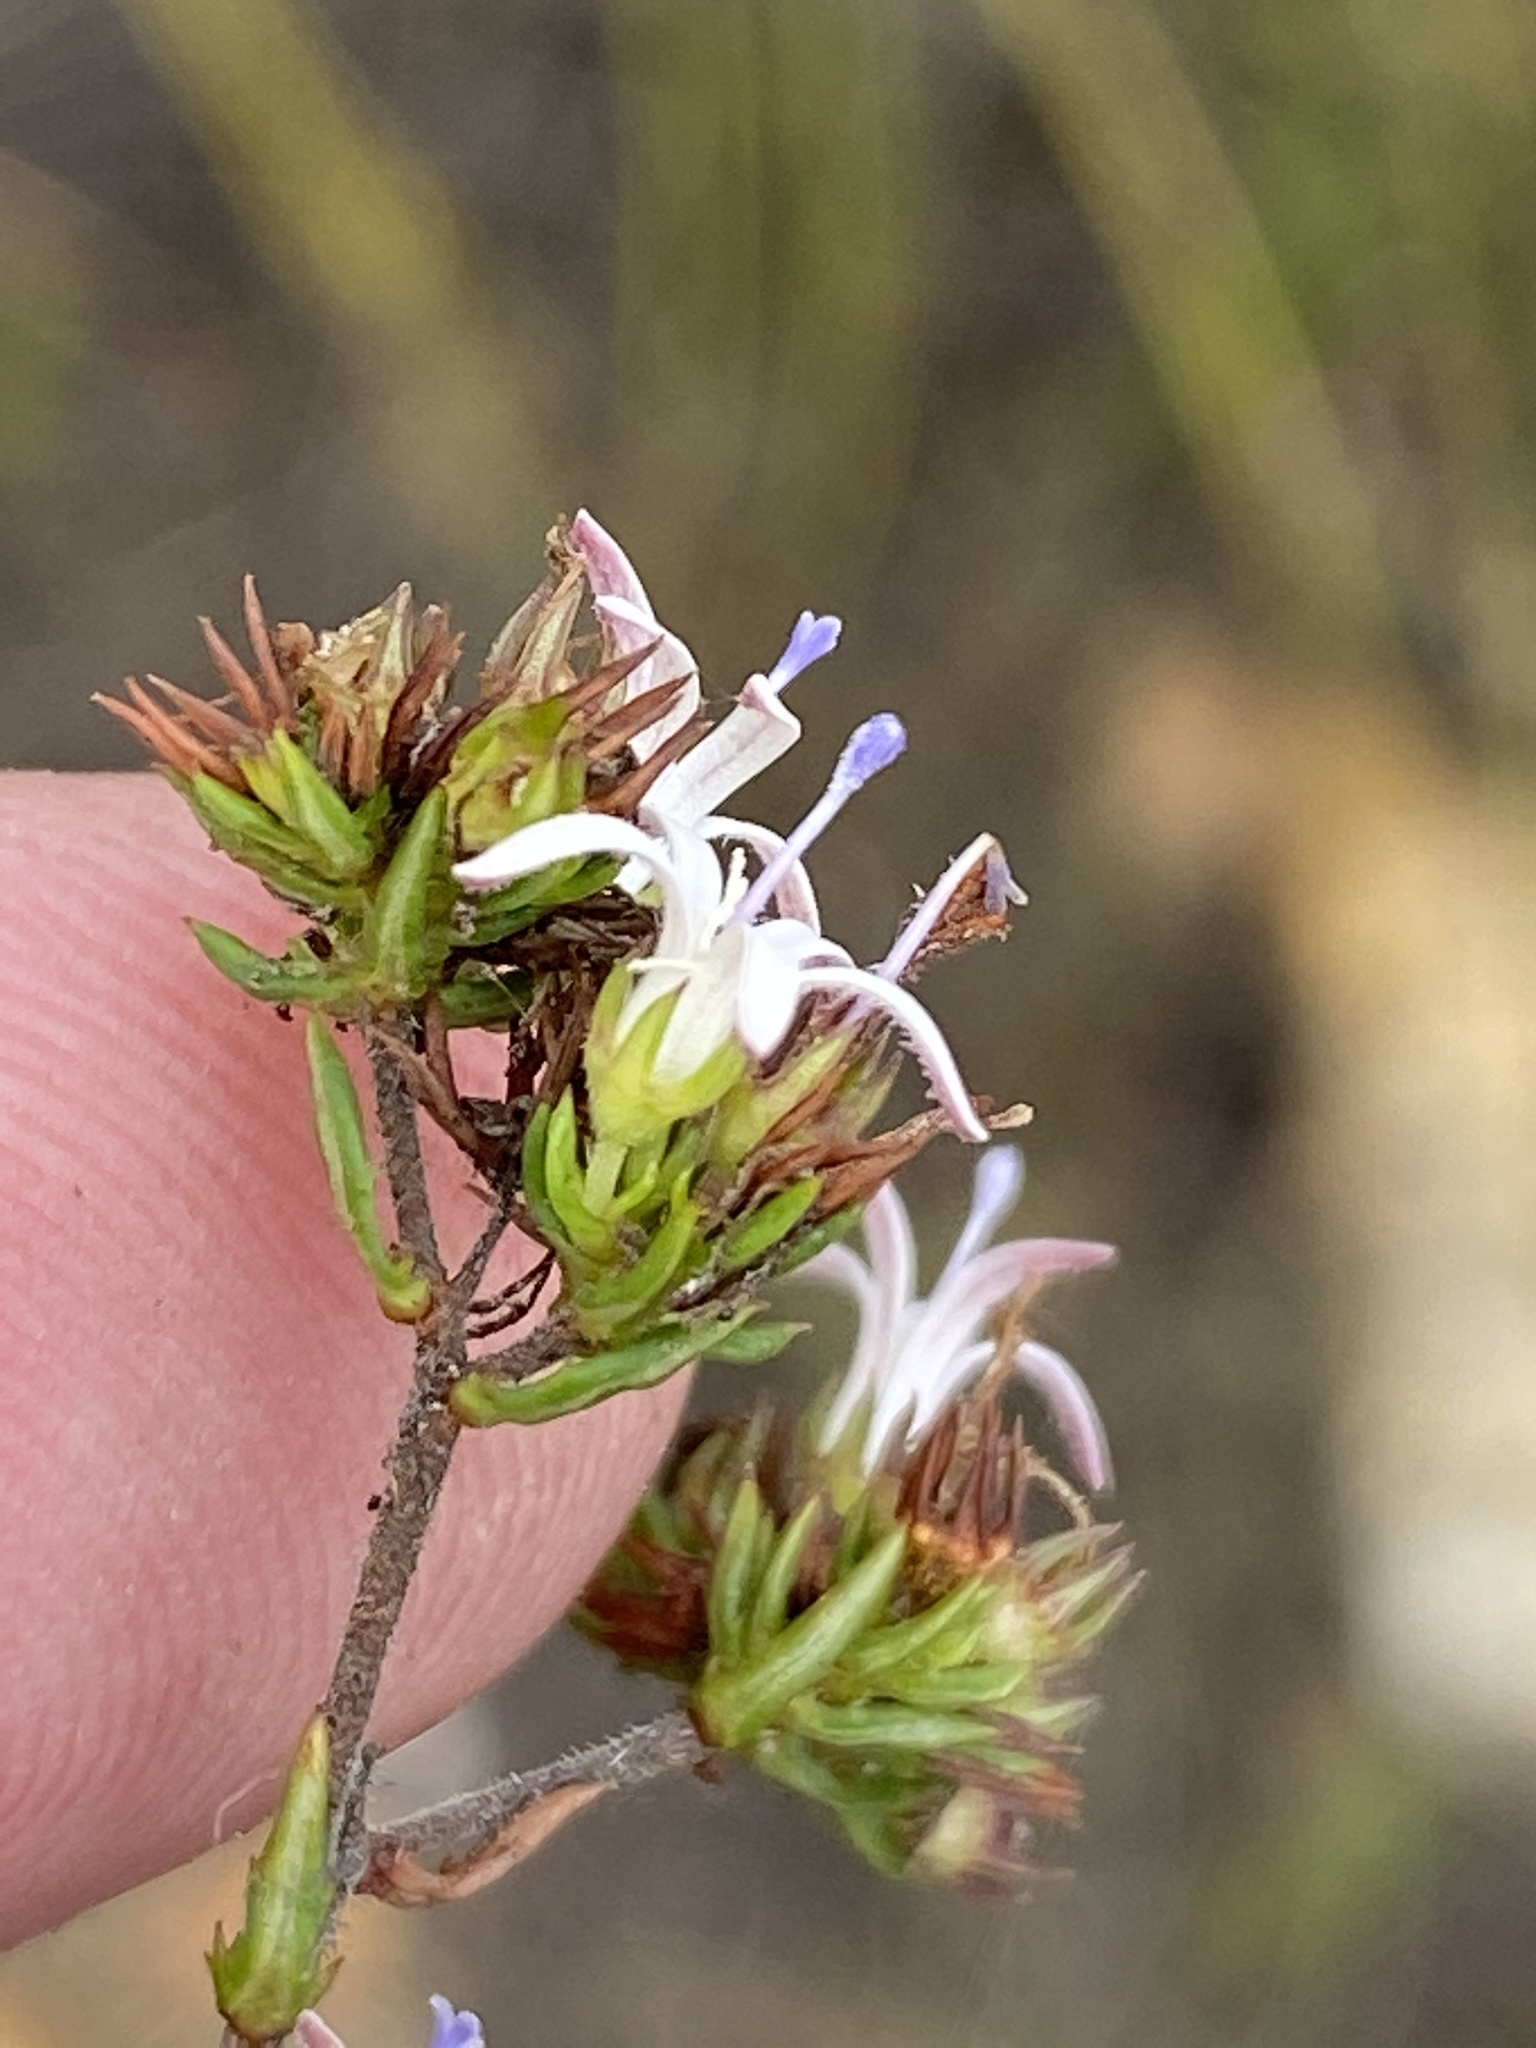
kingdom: Plantae
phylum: Tracheophyta
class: Magnoliopsida
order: Asterales
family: Campanulaceae
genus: Wahlenbergia
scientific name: Wahlenbergia rubens
